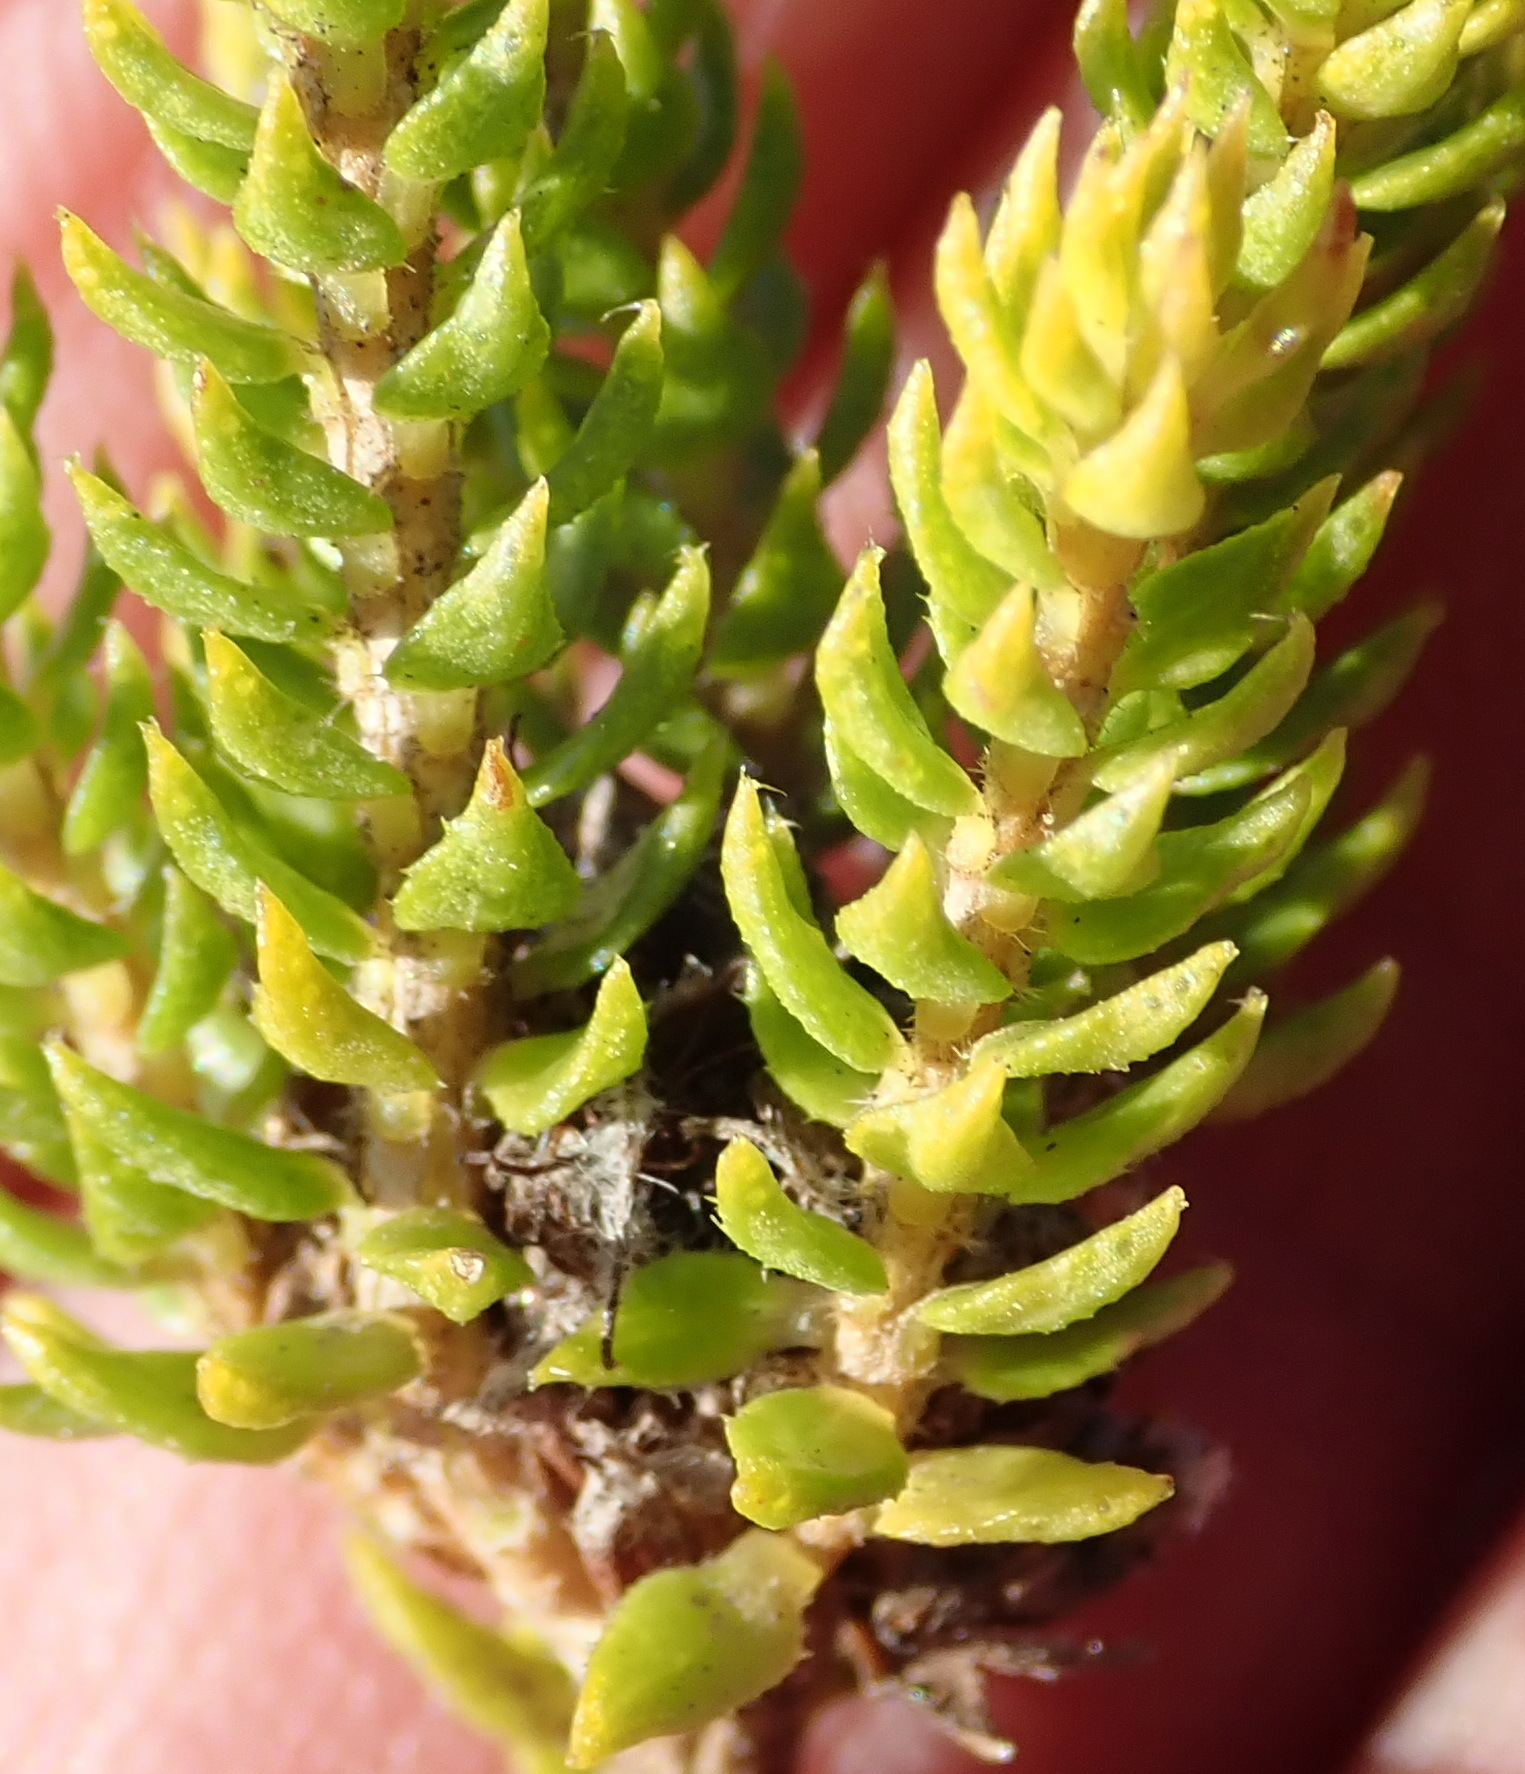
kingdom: Plantae
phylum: Tracheophyta
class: Magnoliopsida
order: Sapindales
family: Rutaceae
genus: Agathosma
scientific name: Agathosma scaberula
